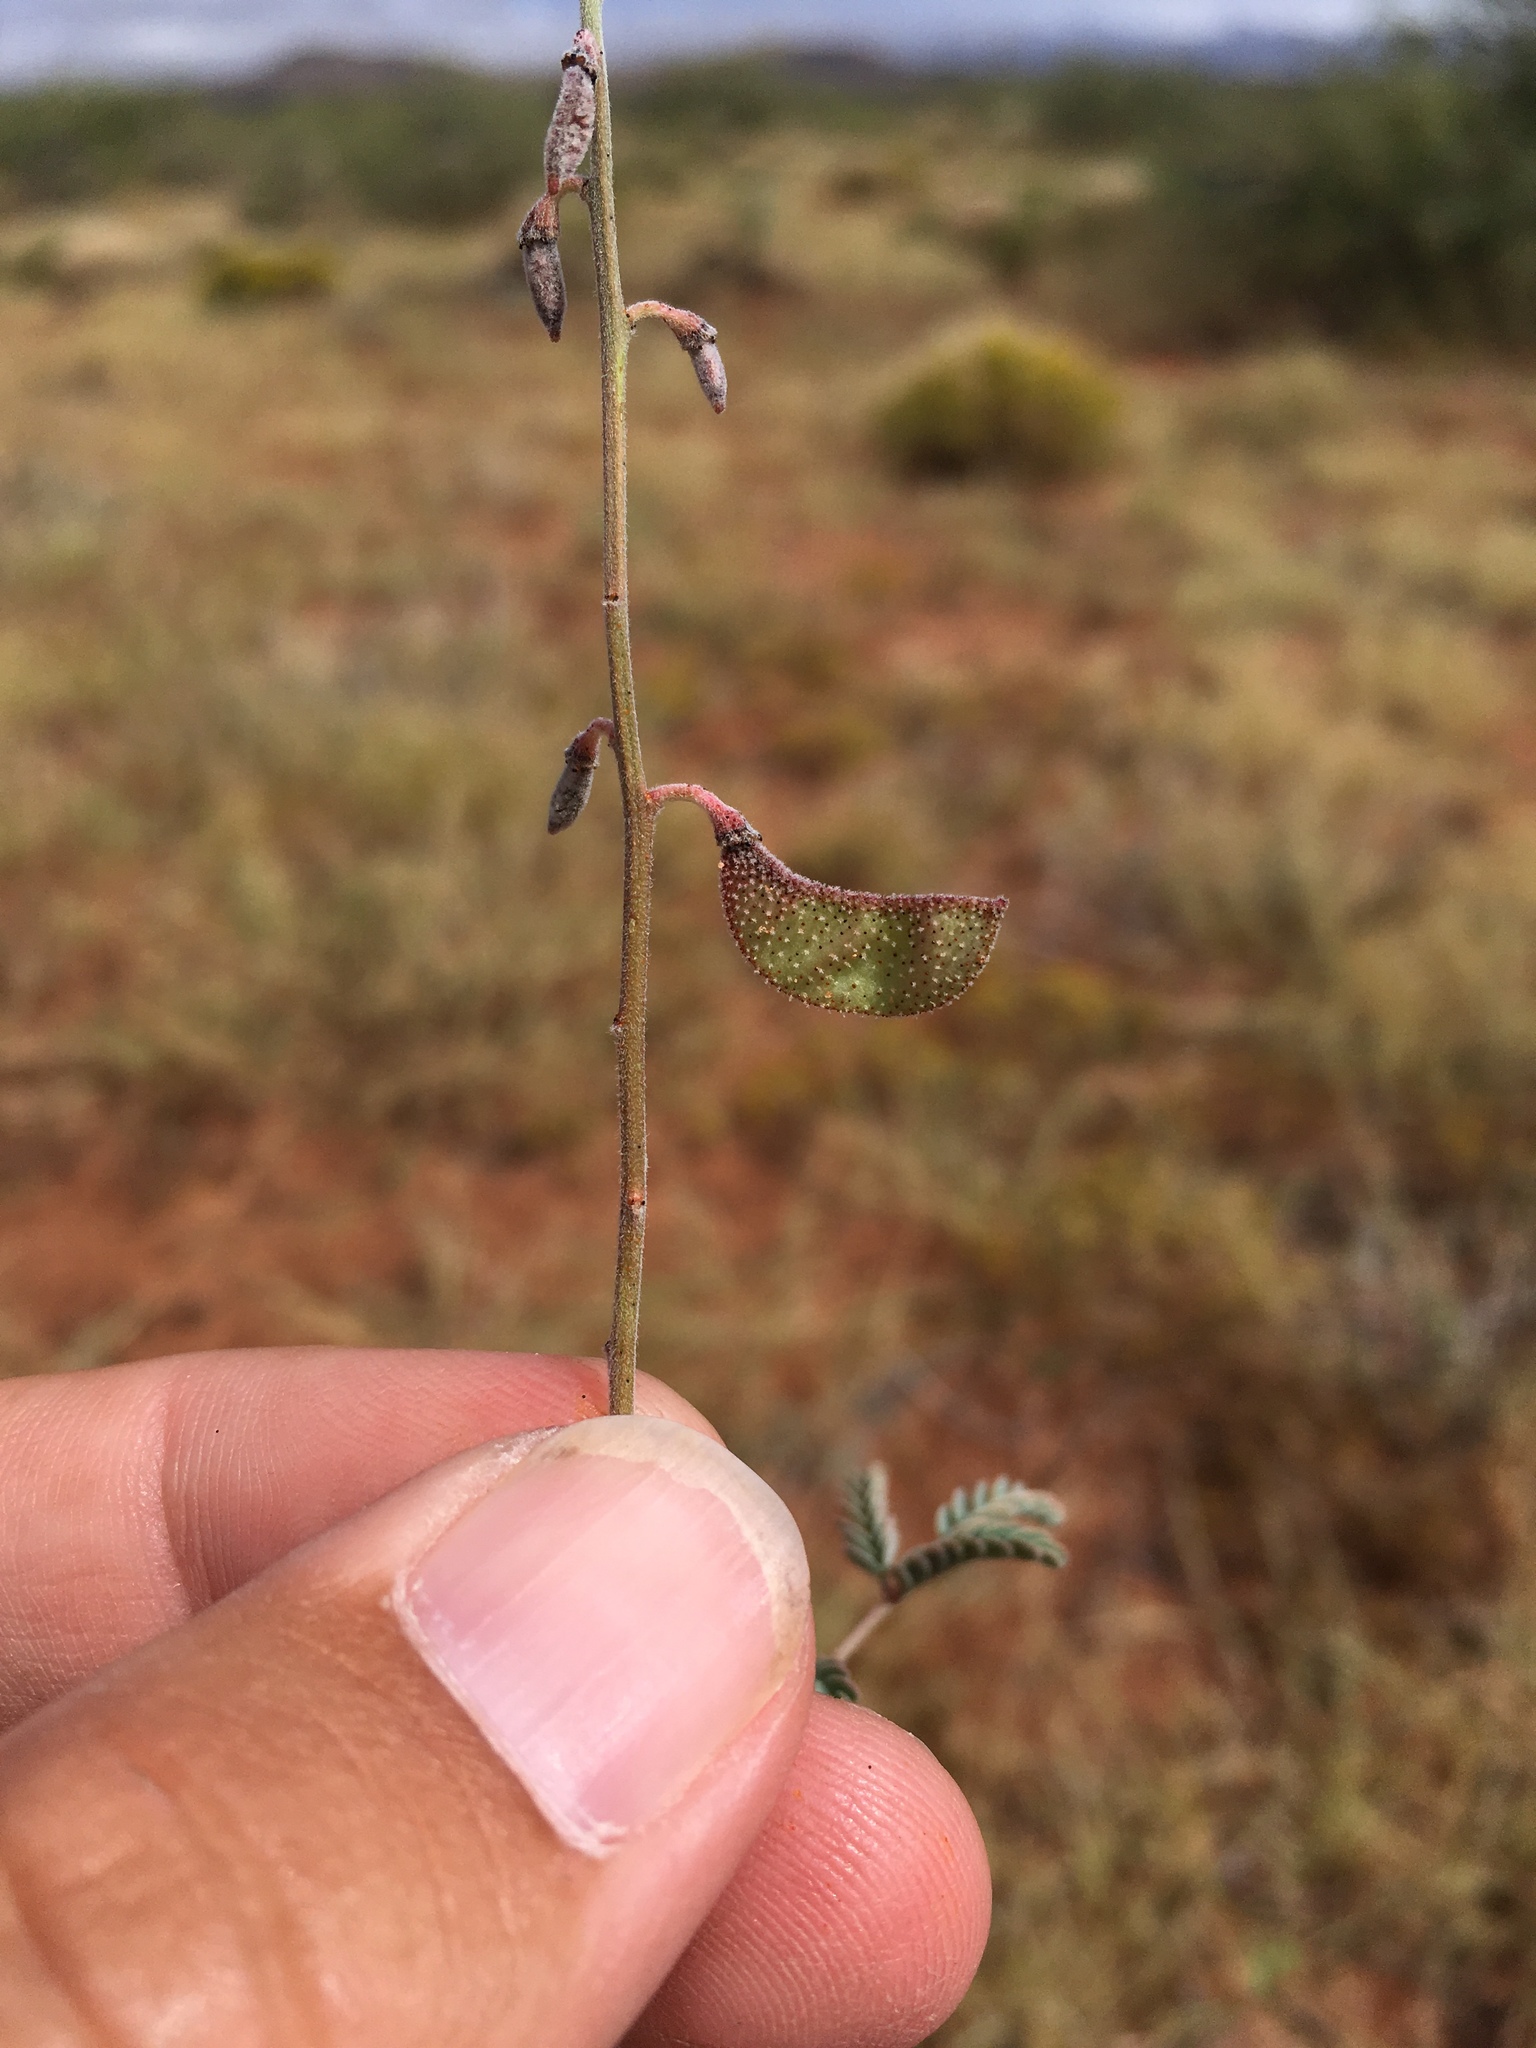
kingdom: Plantae
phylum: Tracheophyta
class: Magnoliopsida
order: Fabales
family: Fabaceae
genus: Pomaria
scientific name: Pomaria jamesii
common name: James' caesalpinia
